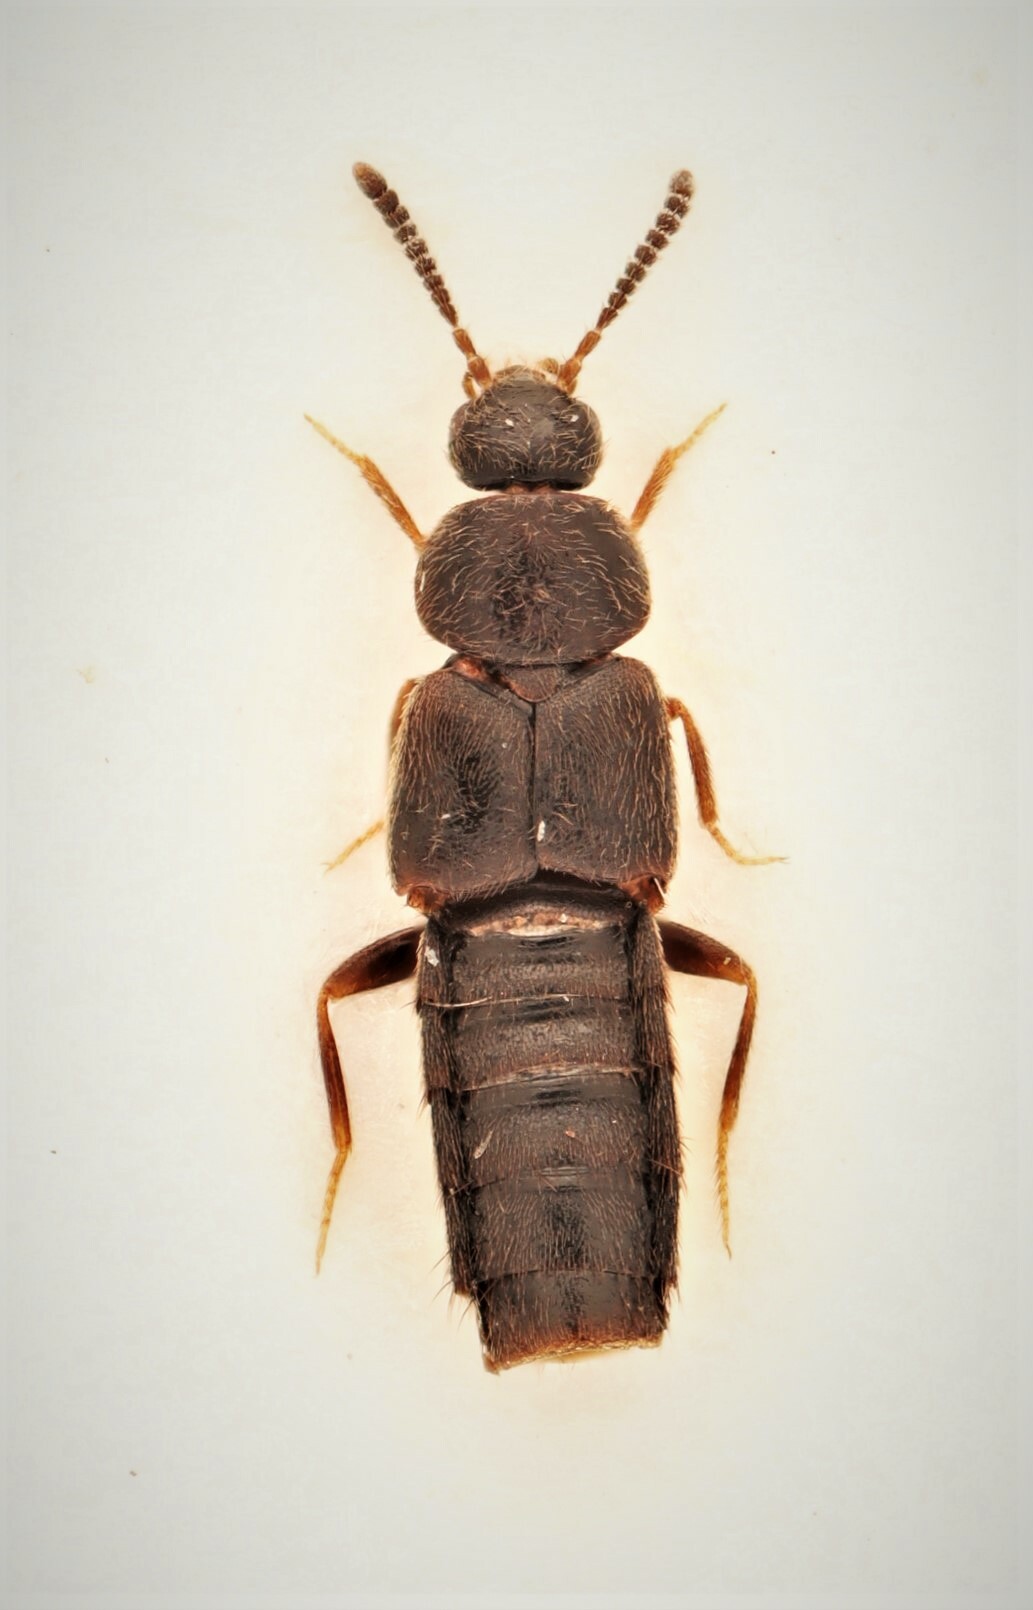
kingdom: Animalia
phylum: Arthropoda
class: Insecta
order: Coleoptera
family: Staphylinidae
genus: Oxypoda
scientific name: Oxypoda chantali
